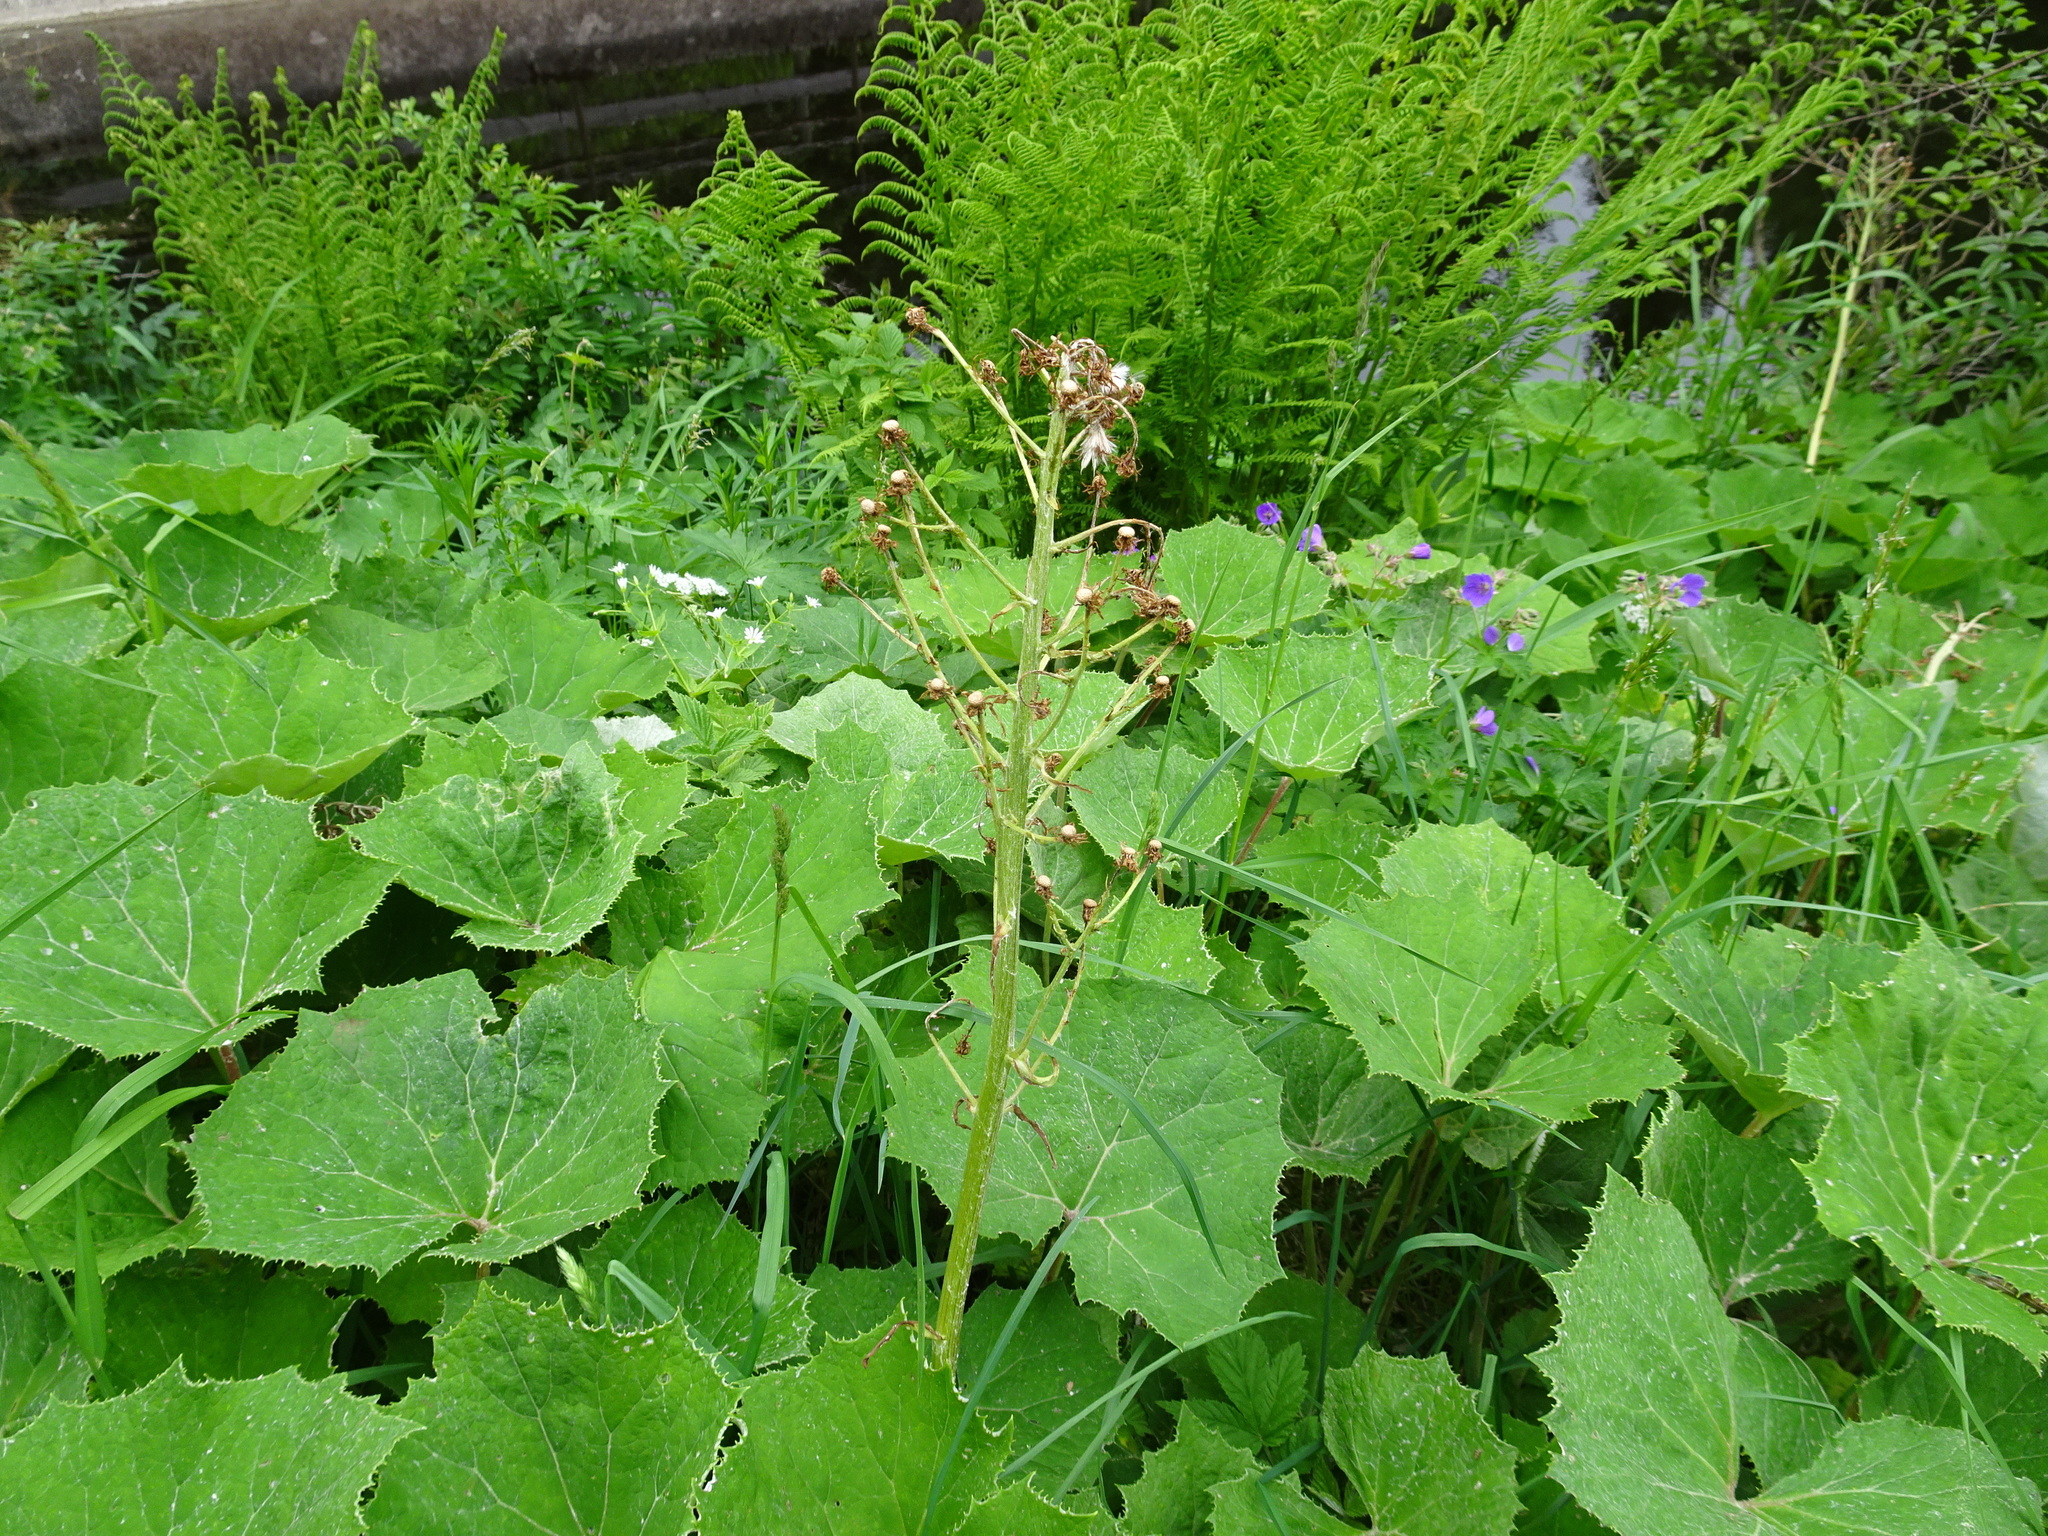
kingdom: Plantae
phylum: Tracheophyta
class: Magnoliopsida
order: Asterales
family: Asteraceae
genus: Petasites
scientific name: Petasites albus
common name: White butterbur
